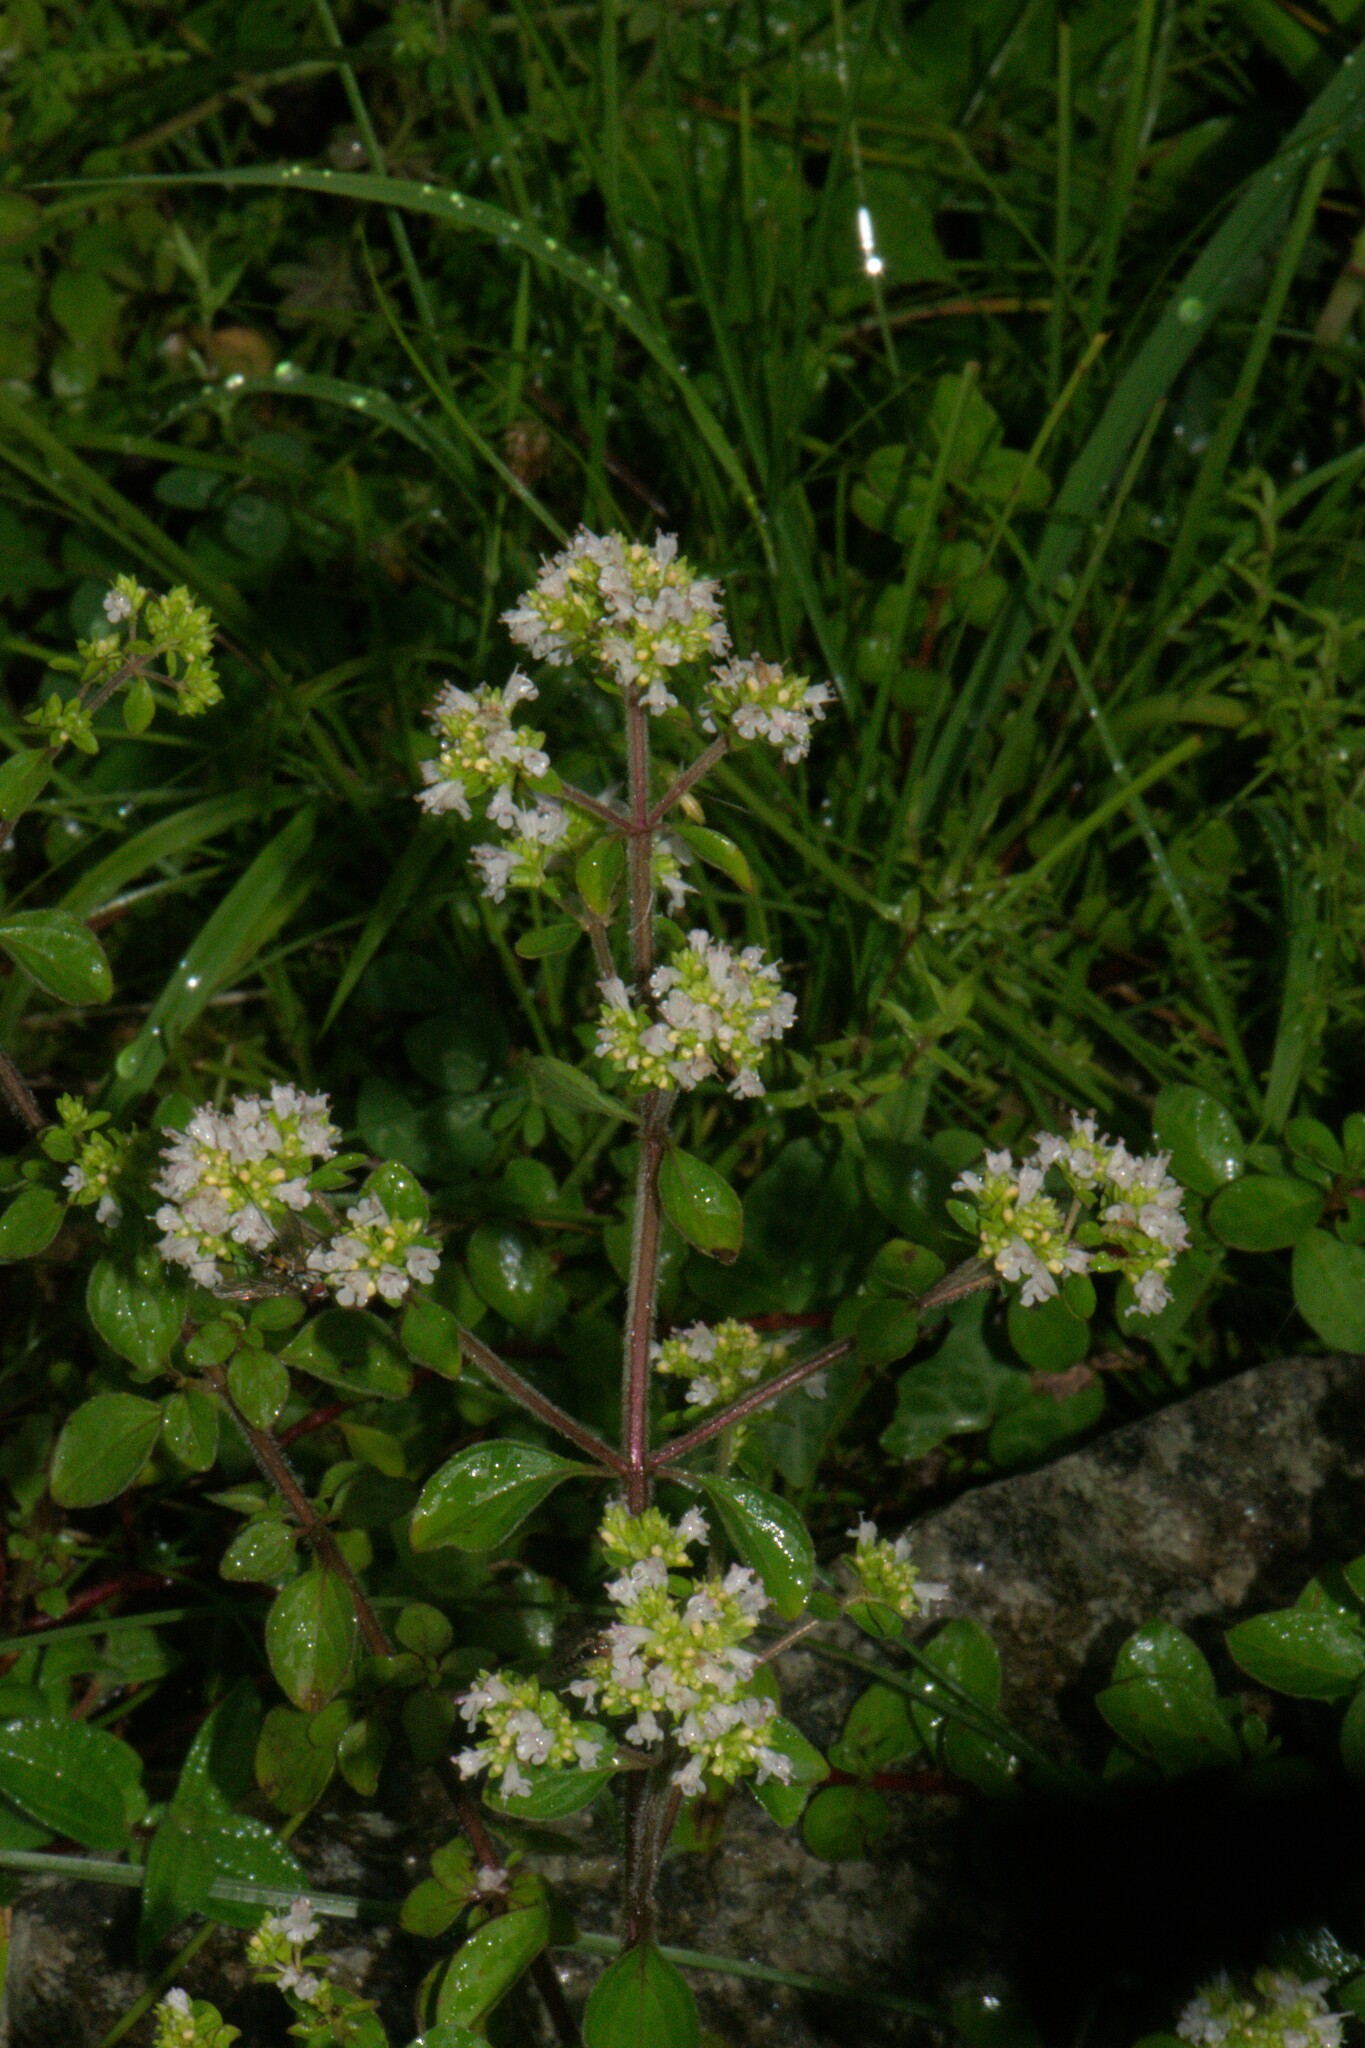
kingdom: Plantae
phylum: Tracheophyta
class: Magnoliopsida
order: Lamiales
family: Lamiaceae
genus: Origanum
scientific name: Origanum vulgare
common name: Wild marjoram
